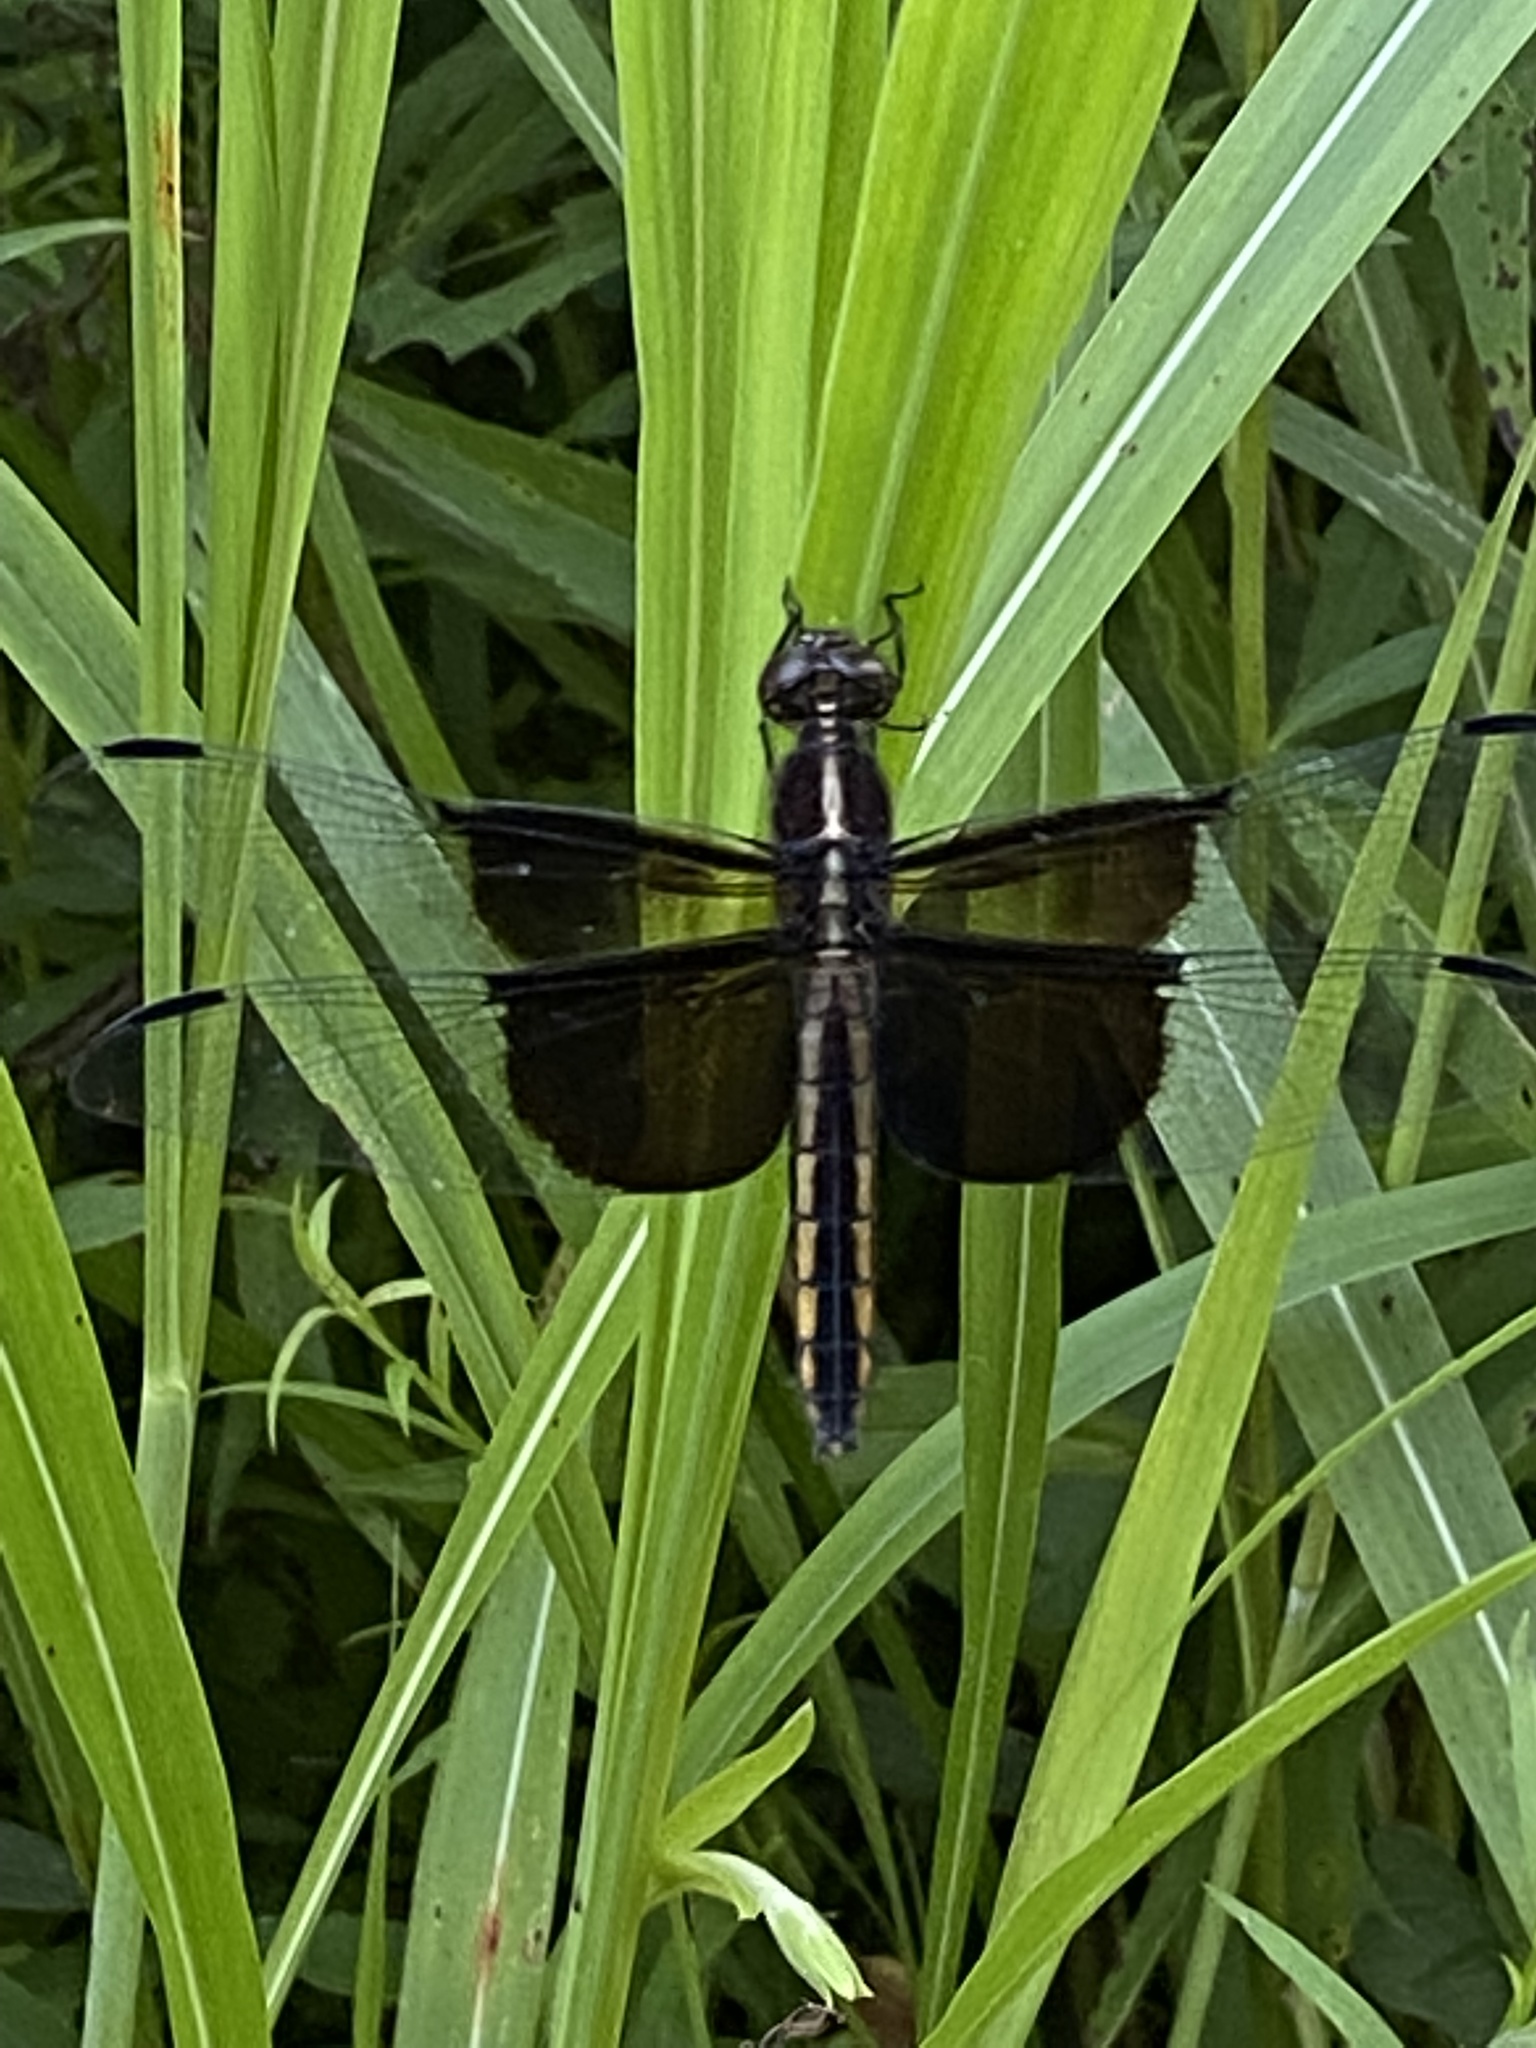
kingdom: Animalia
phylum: Arthropoda
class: Insecta
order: Odonata
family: Libellulidae
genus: Libellula
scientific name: Libellula luctuosa
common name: Widow skimmer
